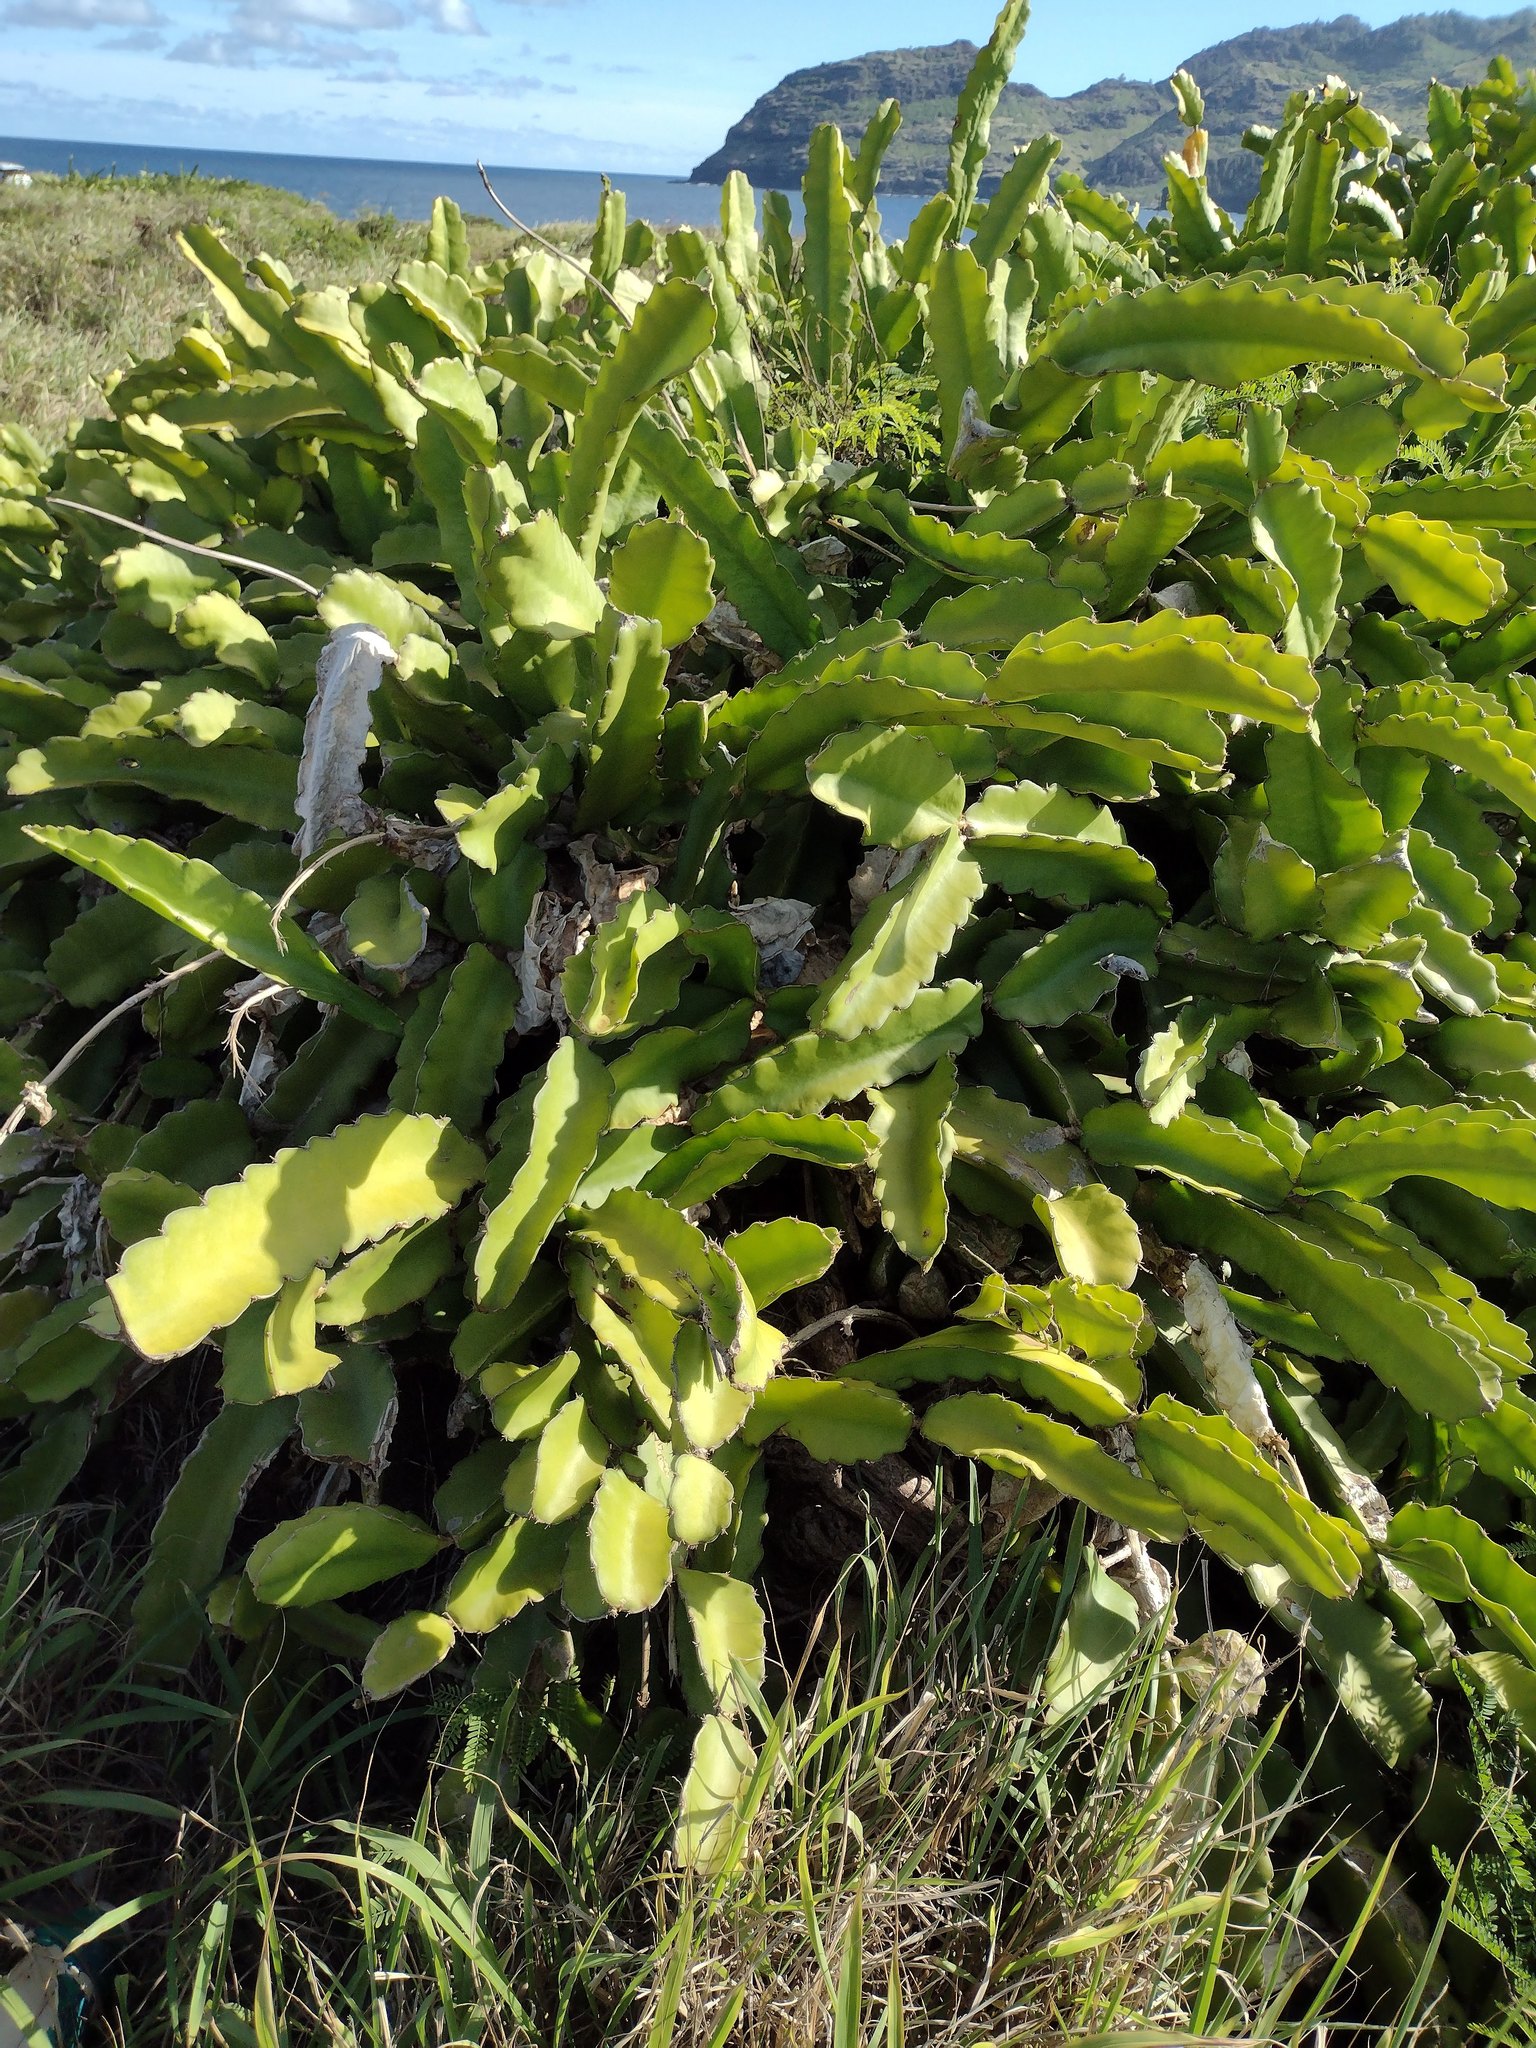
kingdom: Plantae
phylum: Tracheophyta
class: Magnoliopsida
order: Caryophyllales
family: Cactaceae
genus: Selenicereus
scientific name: Selenicereus undatus
